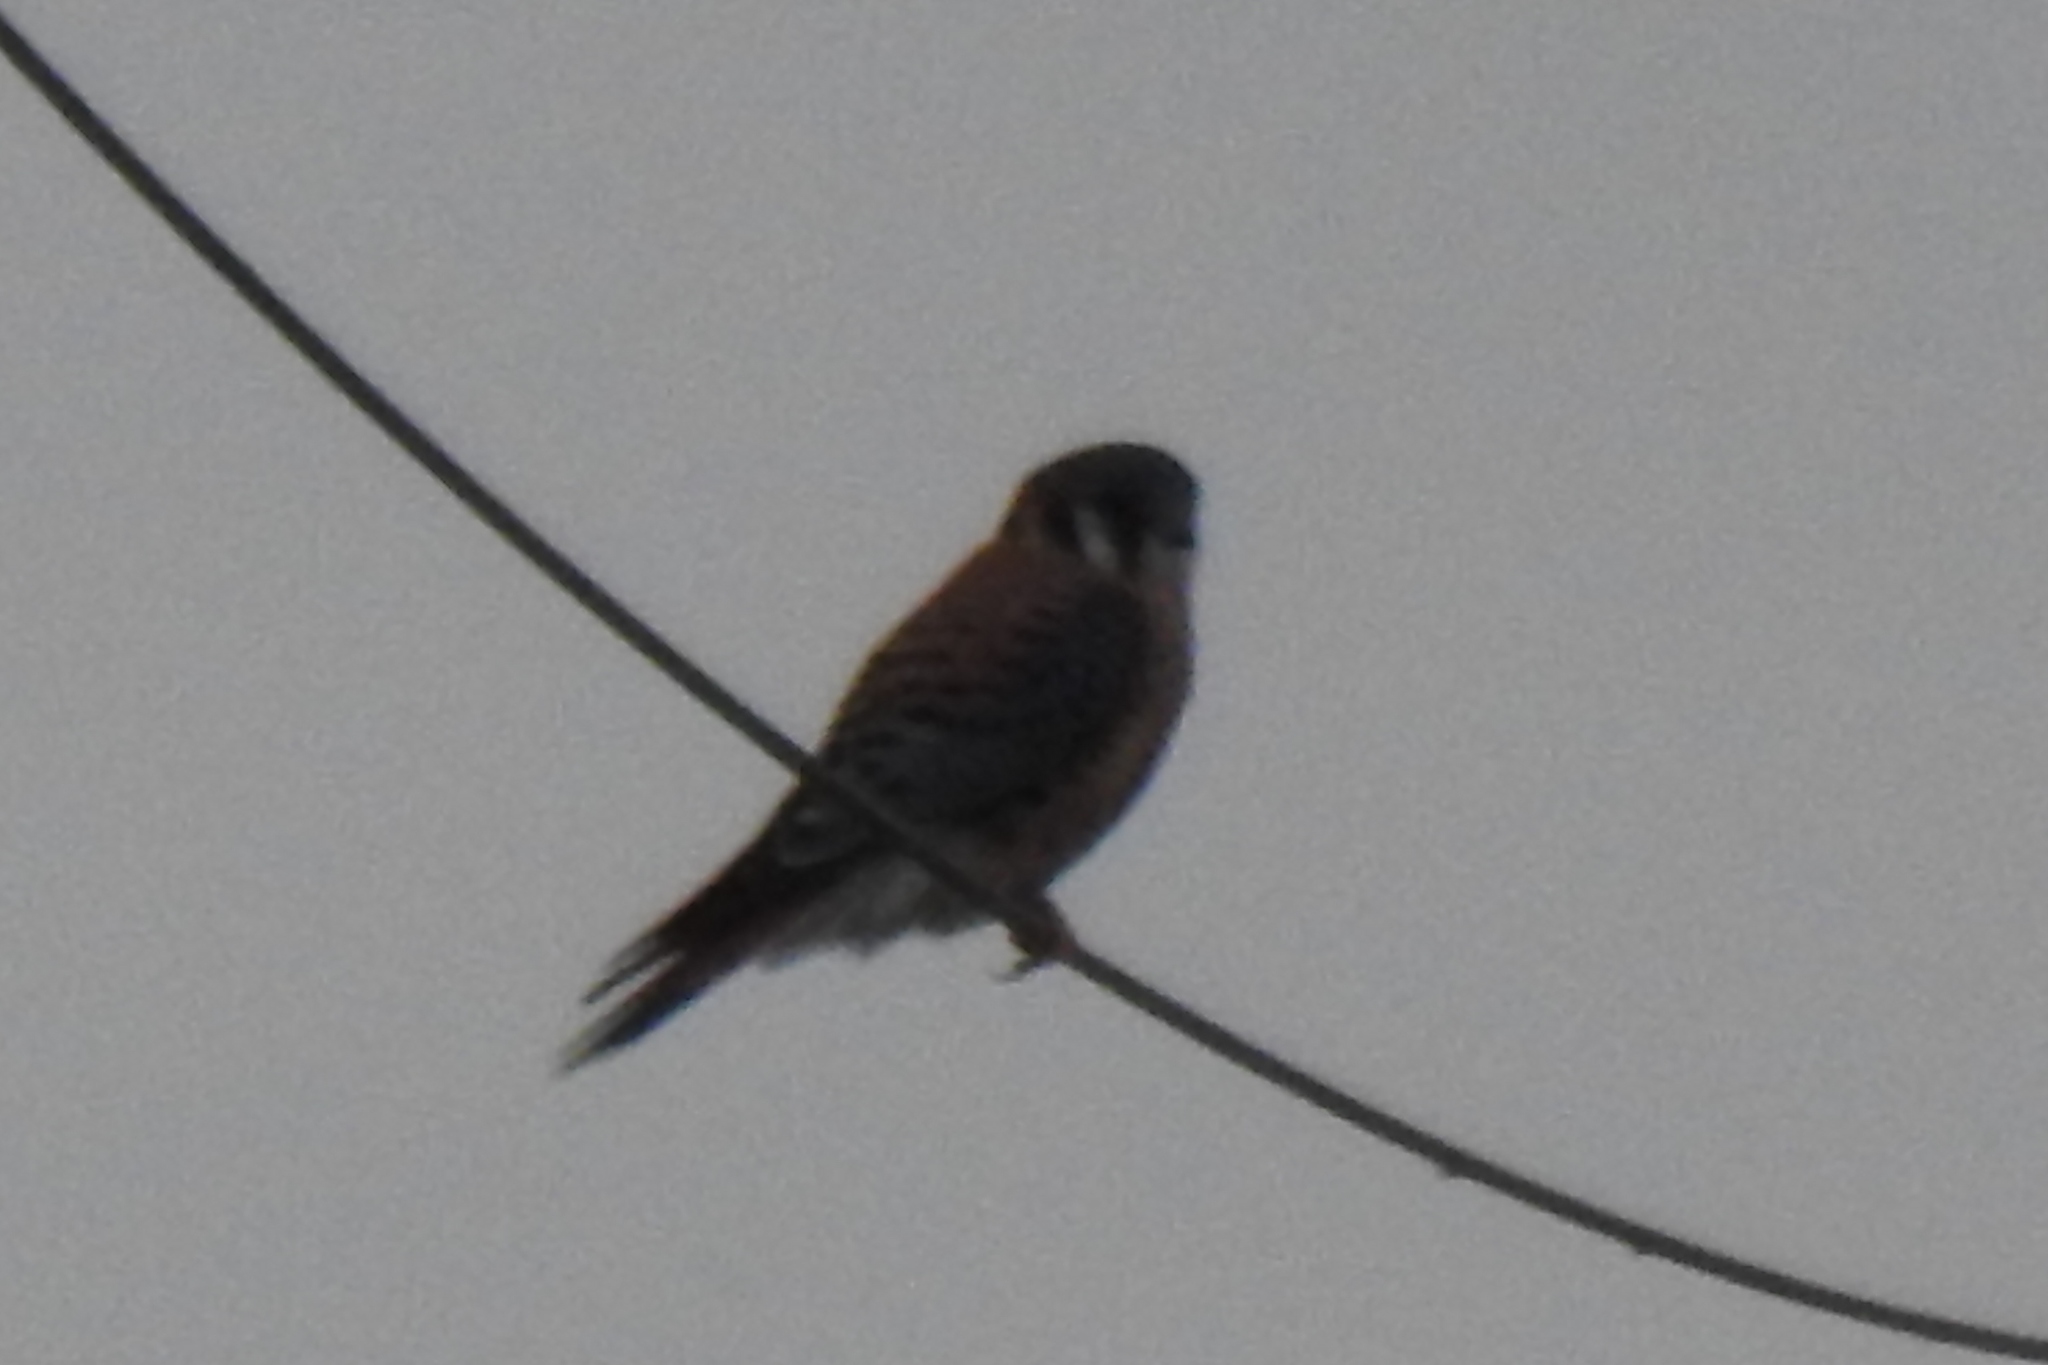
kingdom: Animalia
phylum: Chordata
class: Aves
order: Falconiformes
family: Falconidae
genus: Falco
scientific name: Falco sparverius
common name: American kestrel
